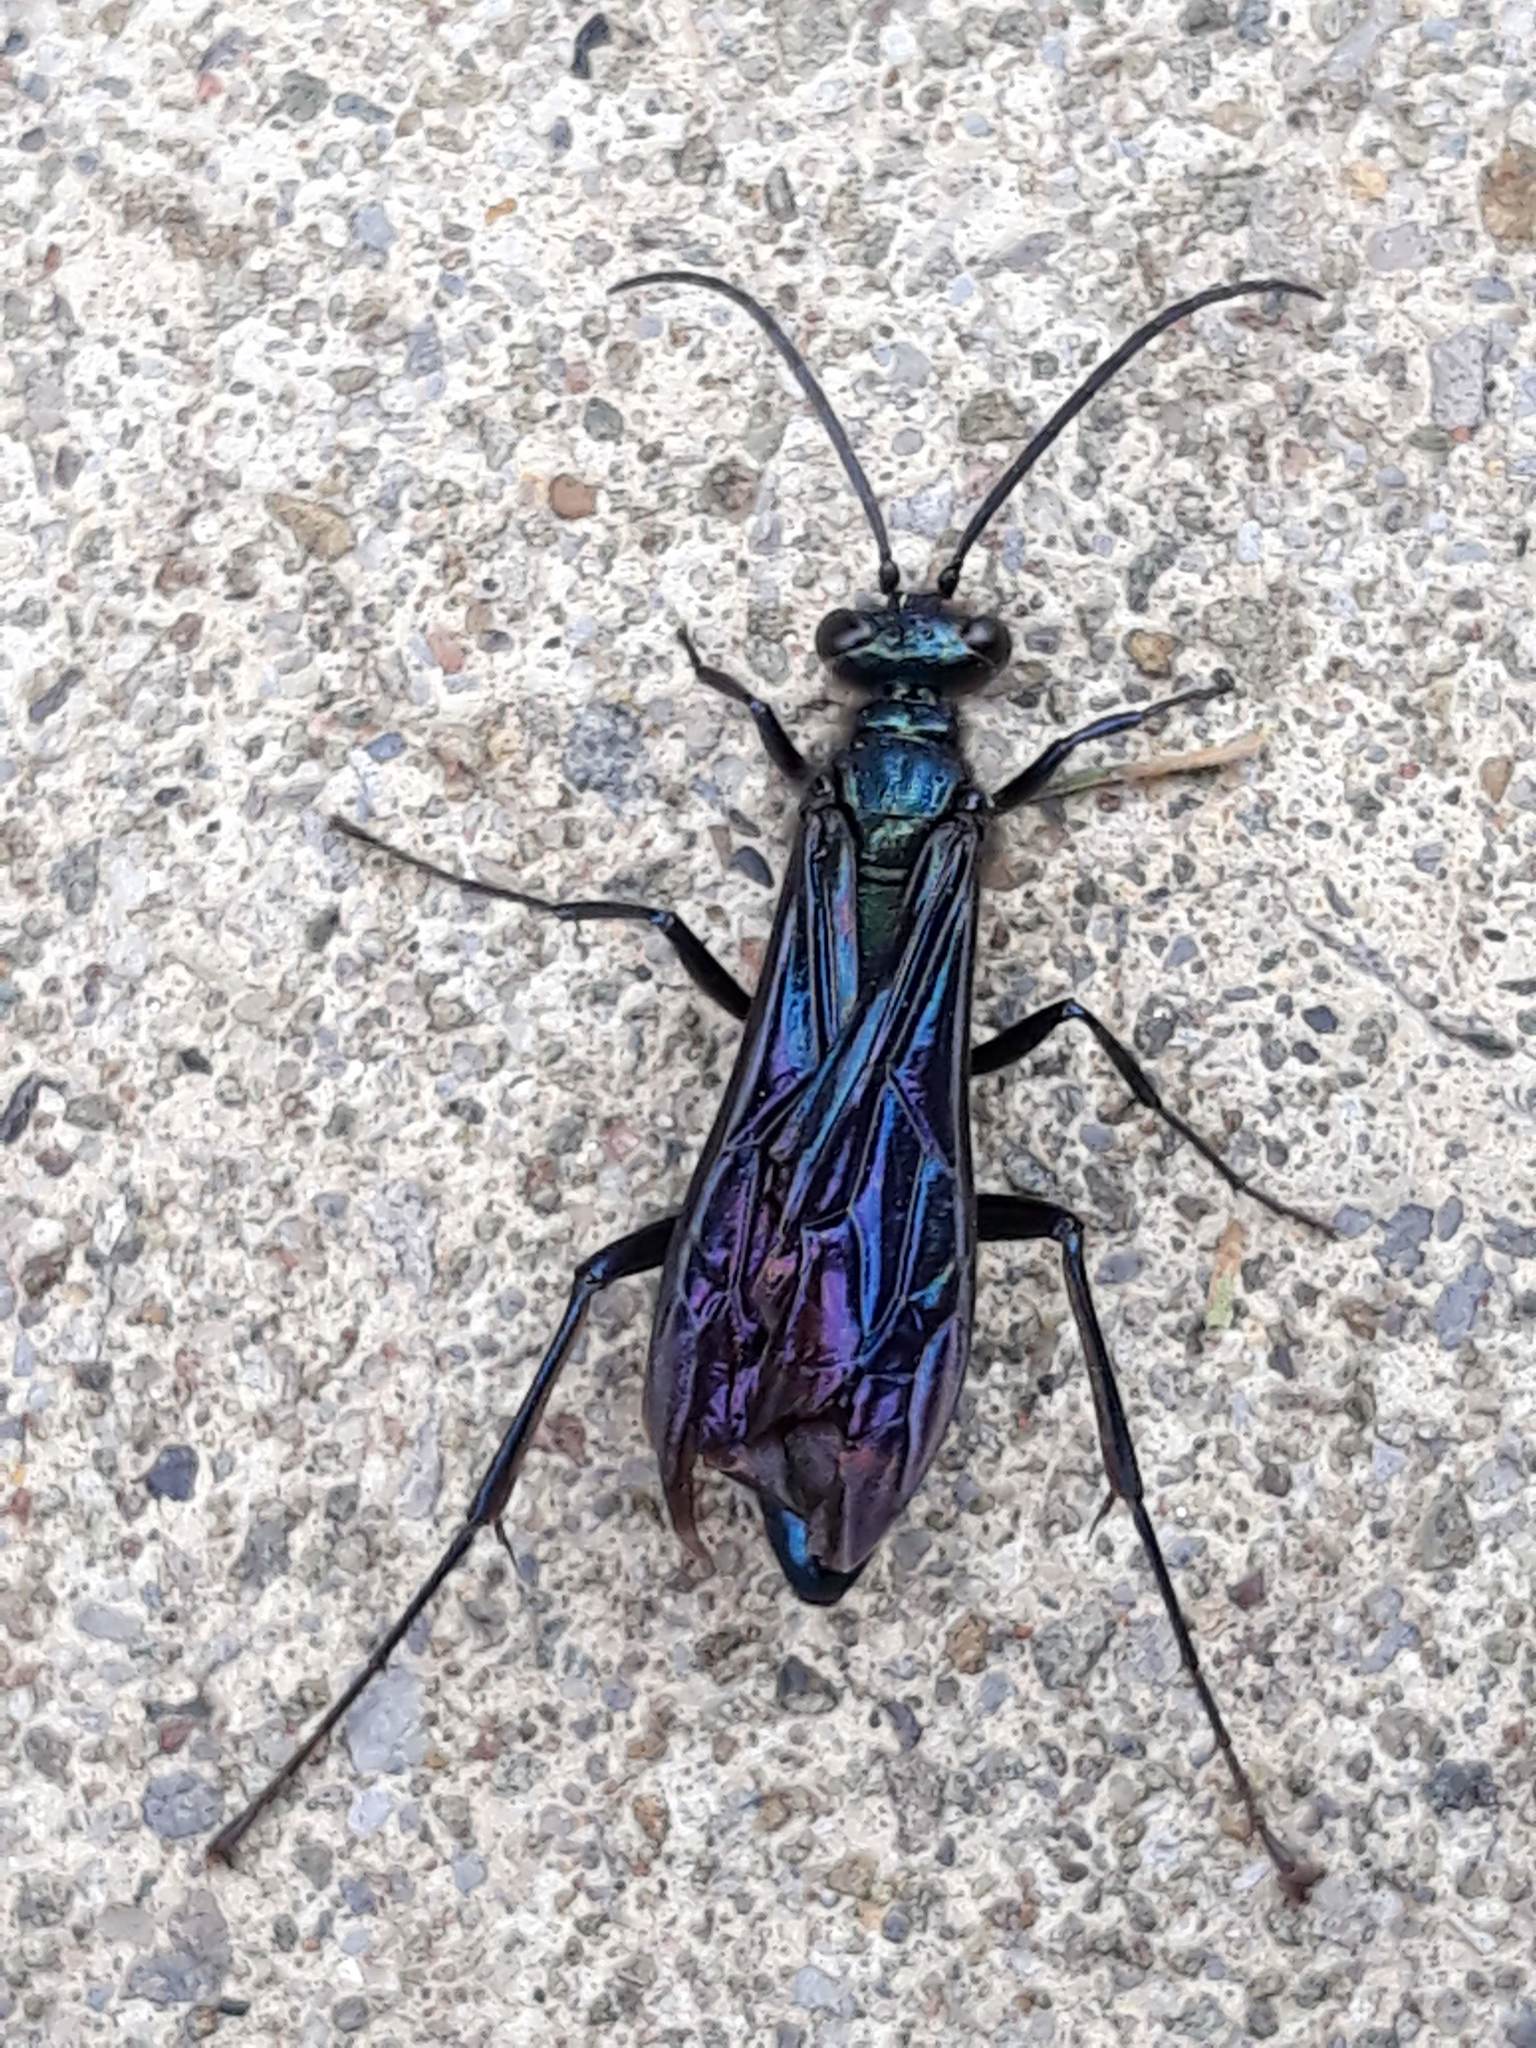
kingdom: Animalia
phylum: Arthropoda
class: Insecta
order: Hymenoptera
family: Sphecidae
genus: Chalybion
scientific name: Chalybion californicum
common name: Mud dauber
